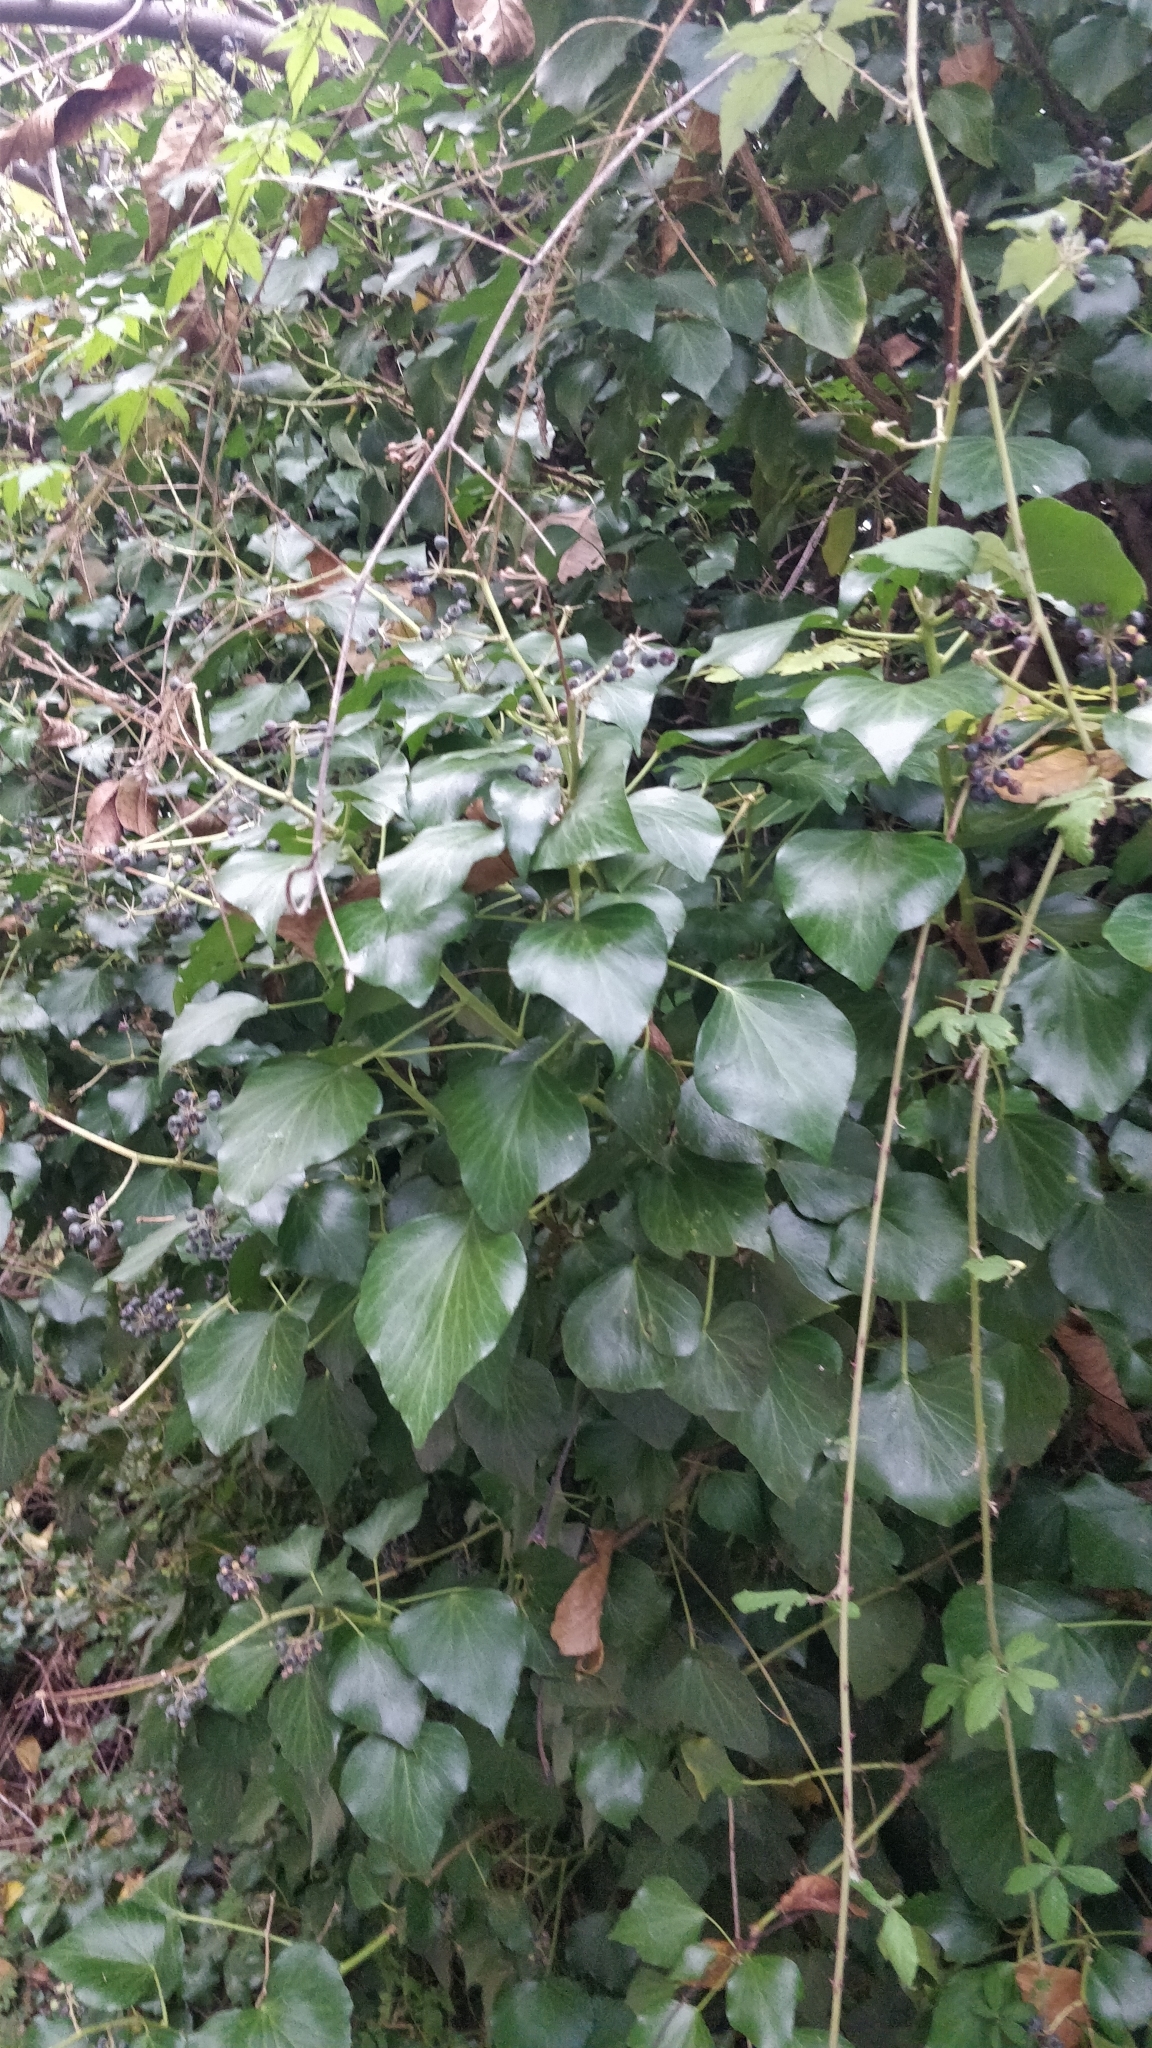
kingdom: Plantae
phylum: Tracheophyta
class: Magnoliopsida
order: Apiales
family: Araliaceae
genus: Hedera
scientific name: Hedera maderensis
